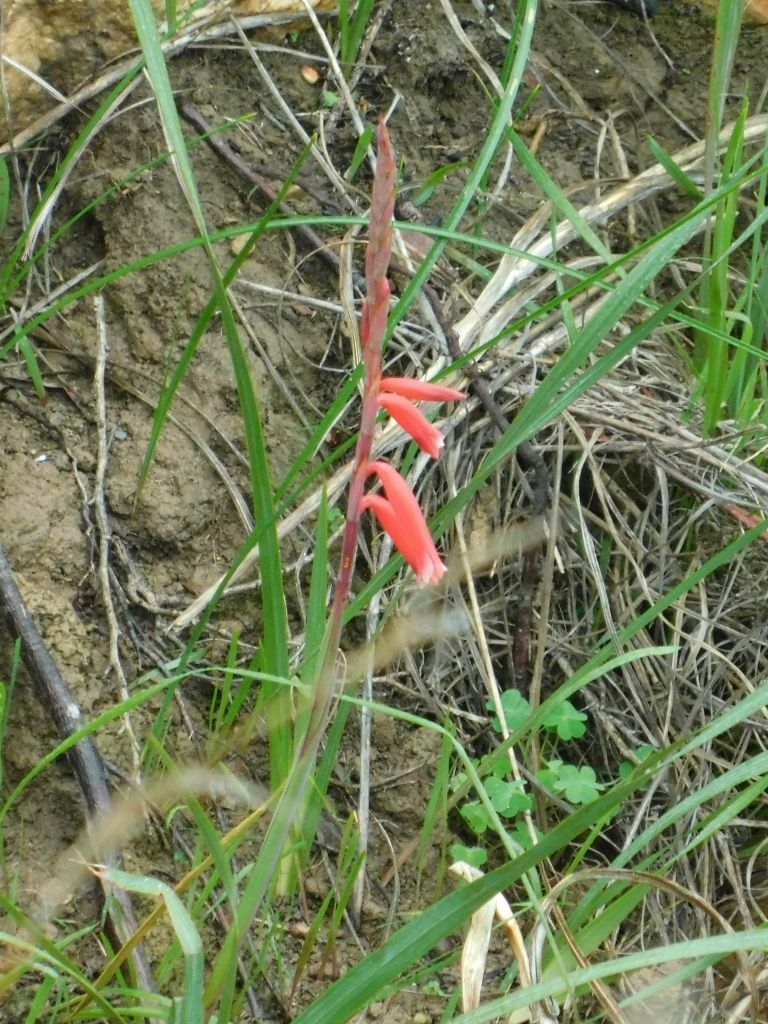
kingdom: Plantae
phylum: Tracheophyta
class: Liliopsida
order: Asparagales
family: Iridaceae
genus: Watsonia
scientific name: Watsonia aletroides
